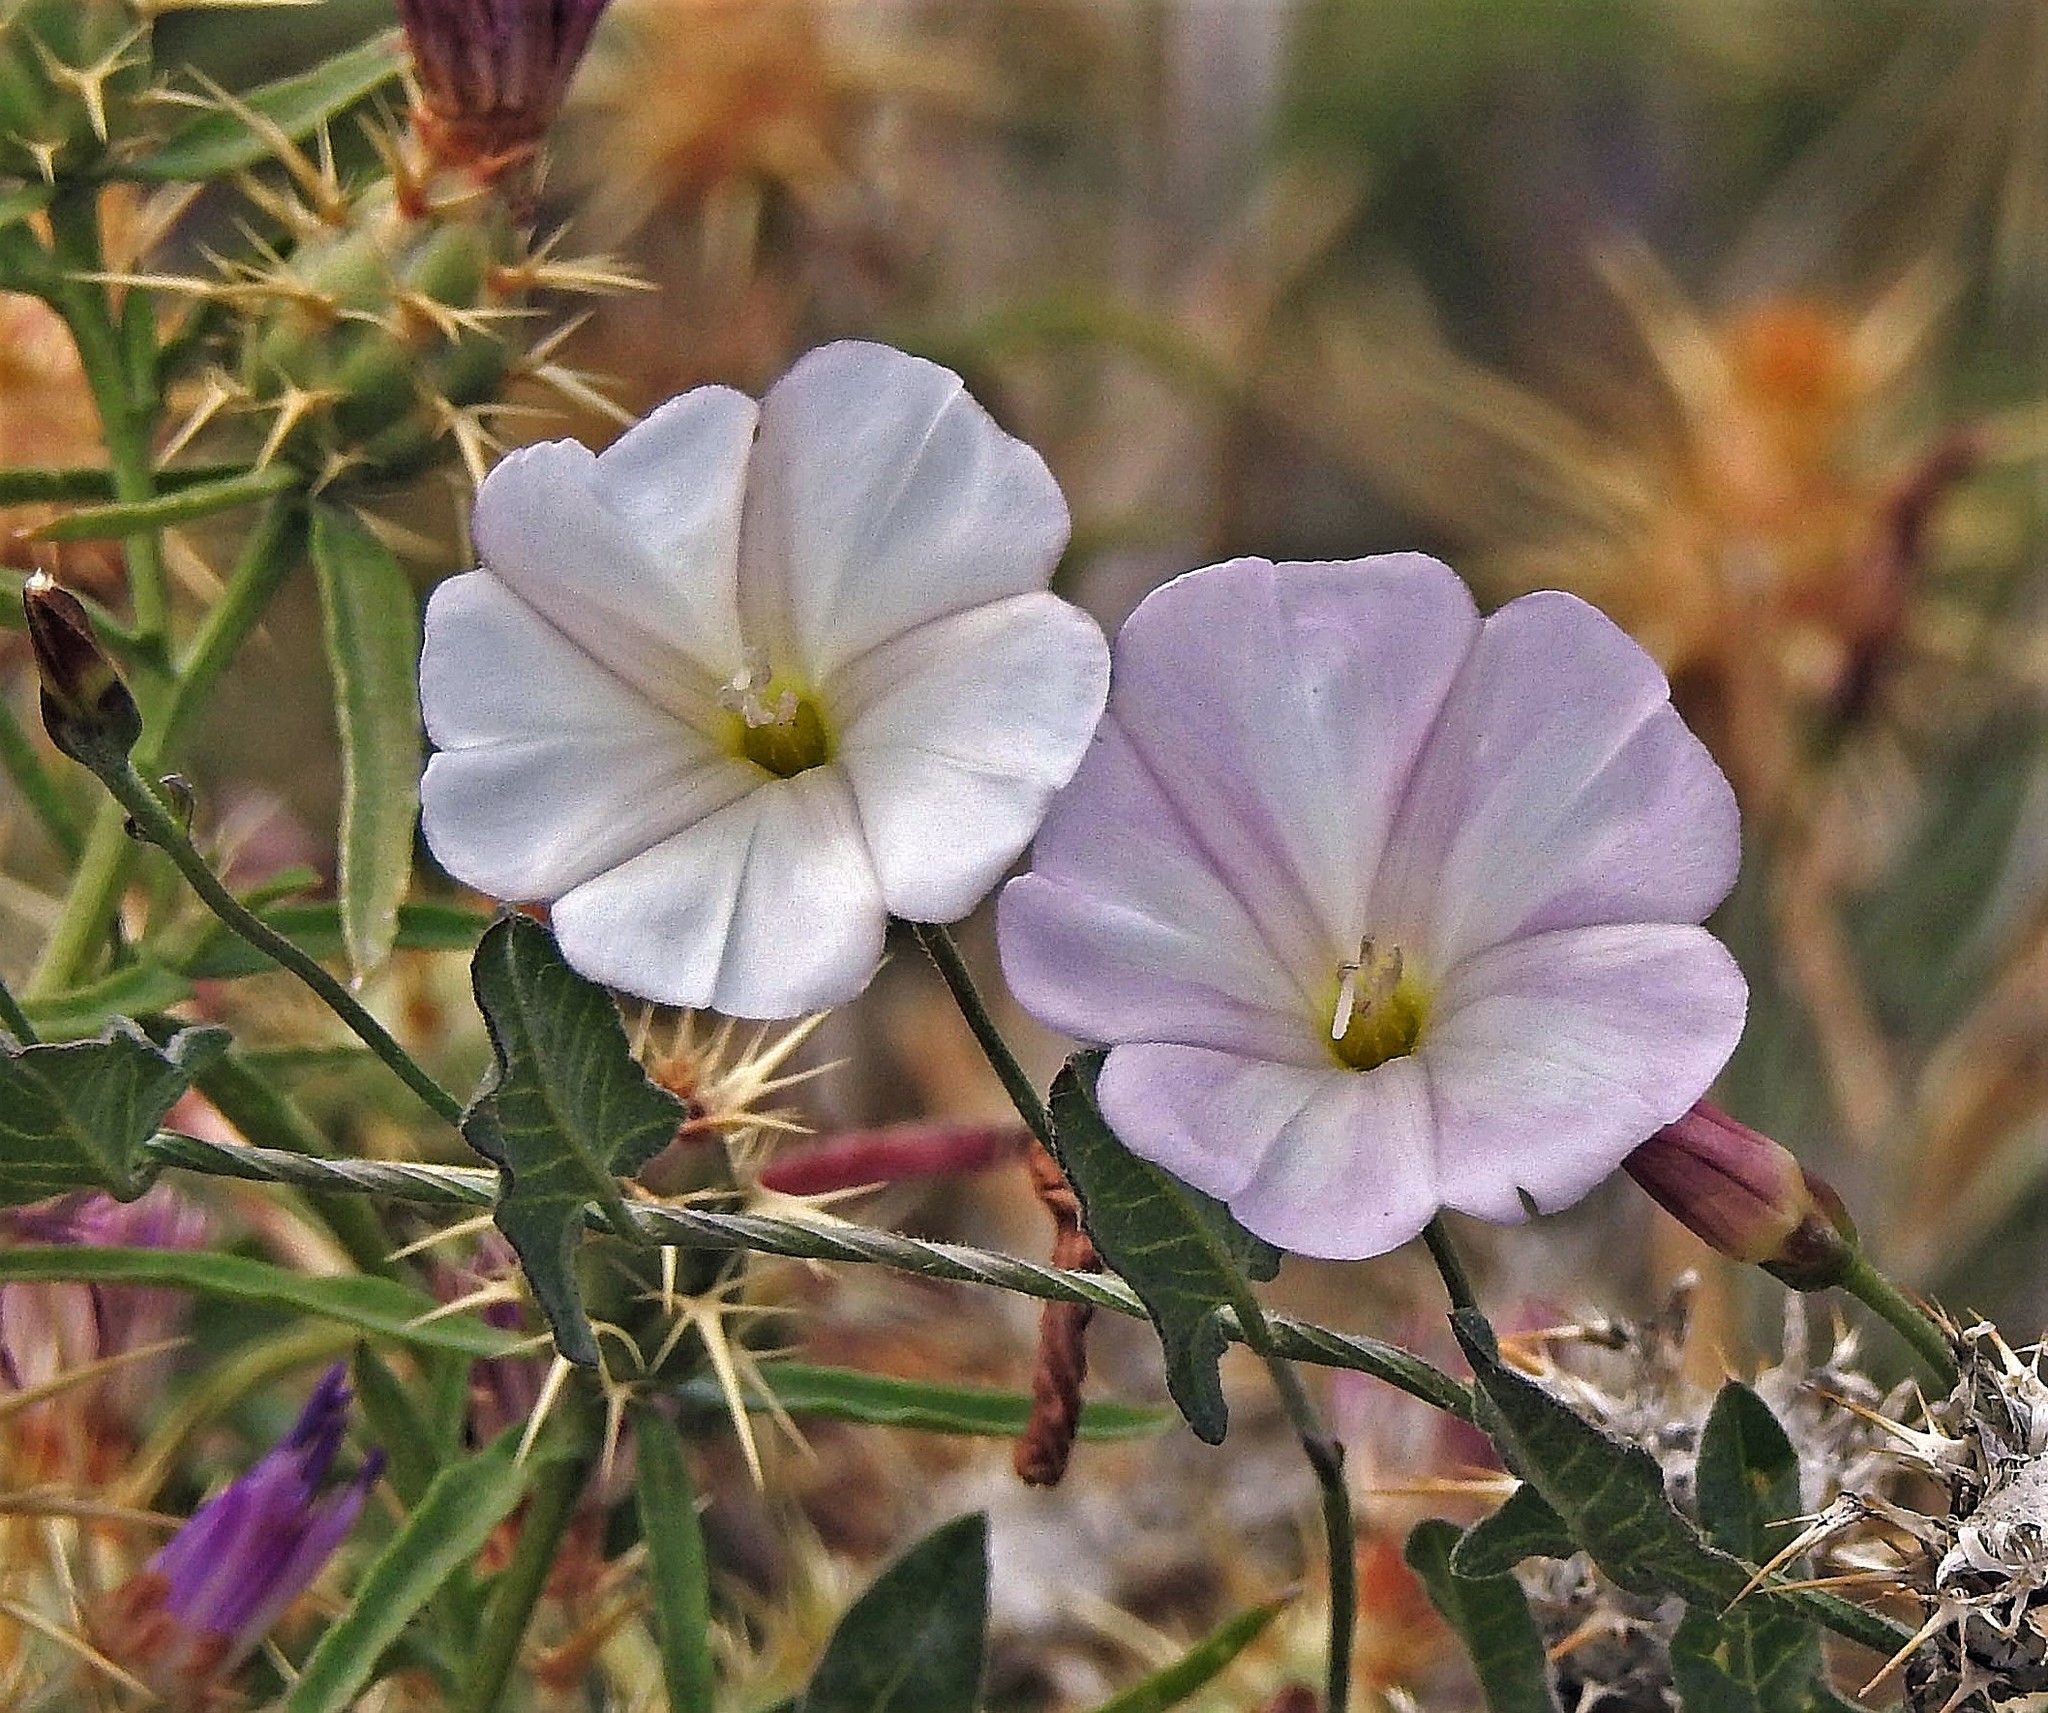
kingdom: Plantae
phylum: Tracheophyta
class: Magnoliopsida
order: Solanales
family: Convolvulaceae
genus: Convolvulus
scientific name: Convolvulus arvensis
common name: Field bindweed
